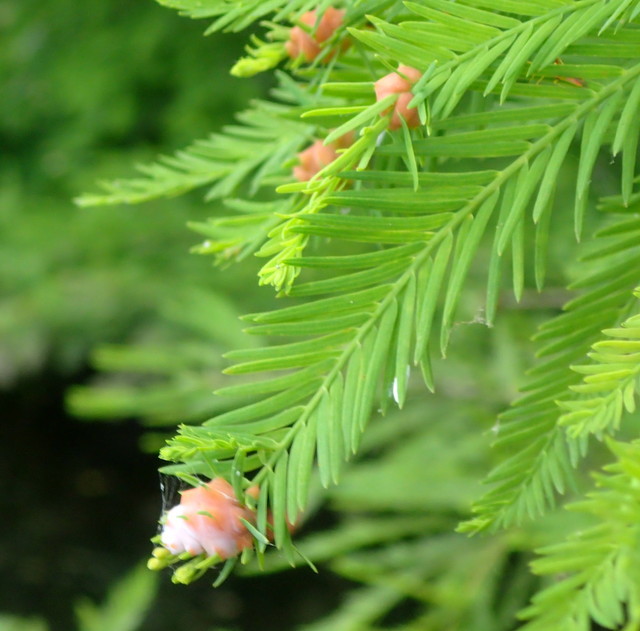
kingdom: Animalia
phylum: Arthropoda
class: Insecta
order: Diptera
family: Cecidomyiidae
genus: Taxodiomyia
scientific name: Taxodiomyia cupressiananassa
